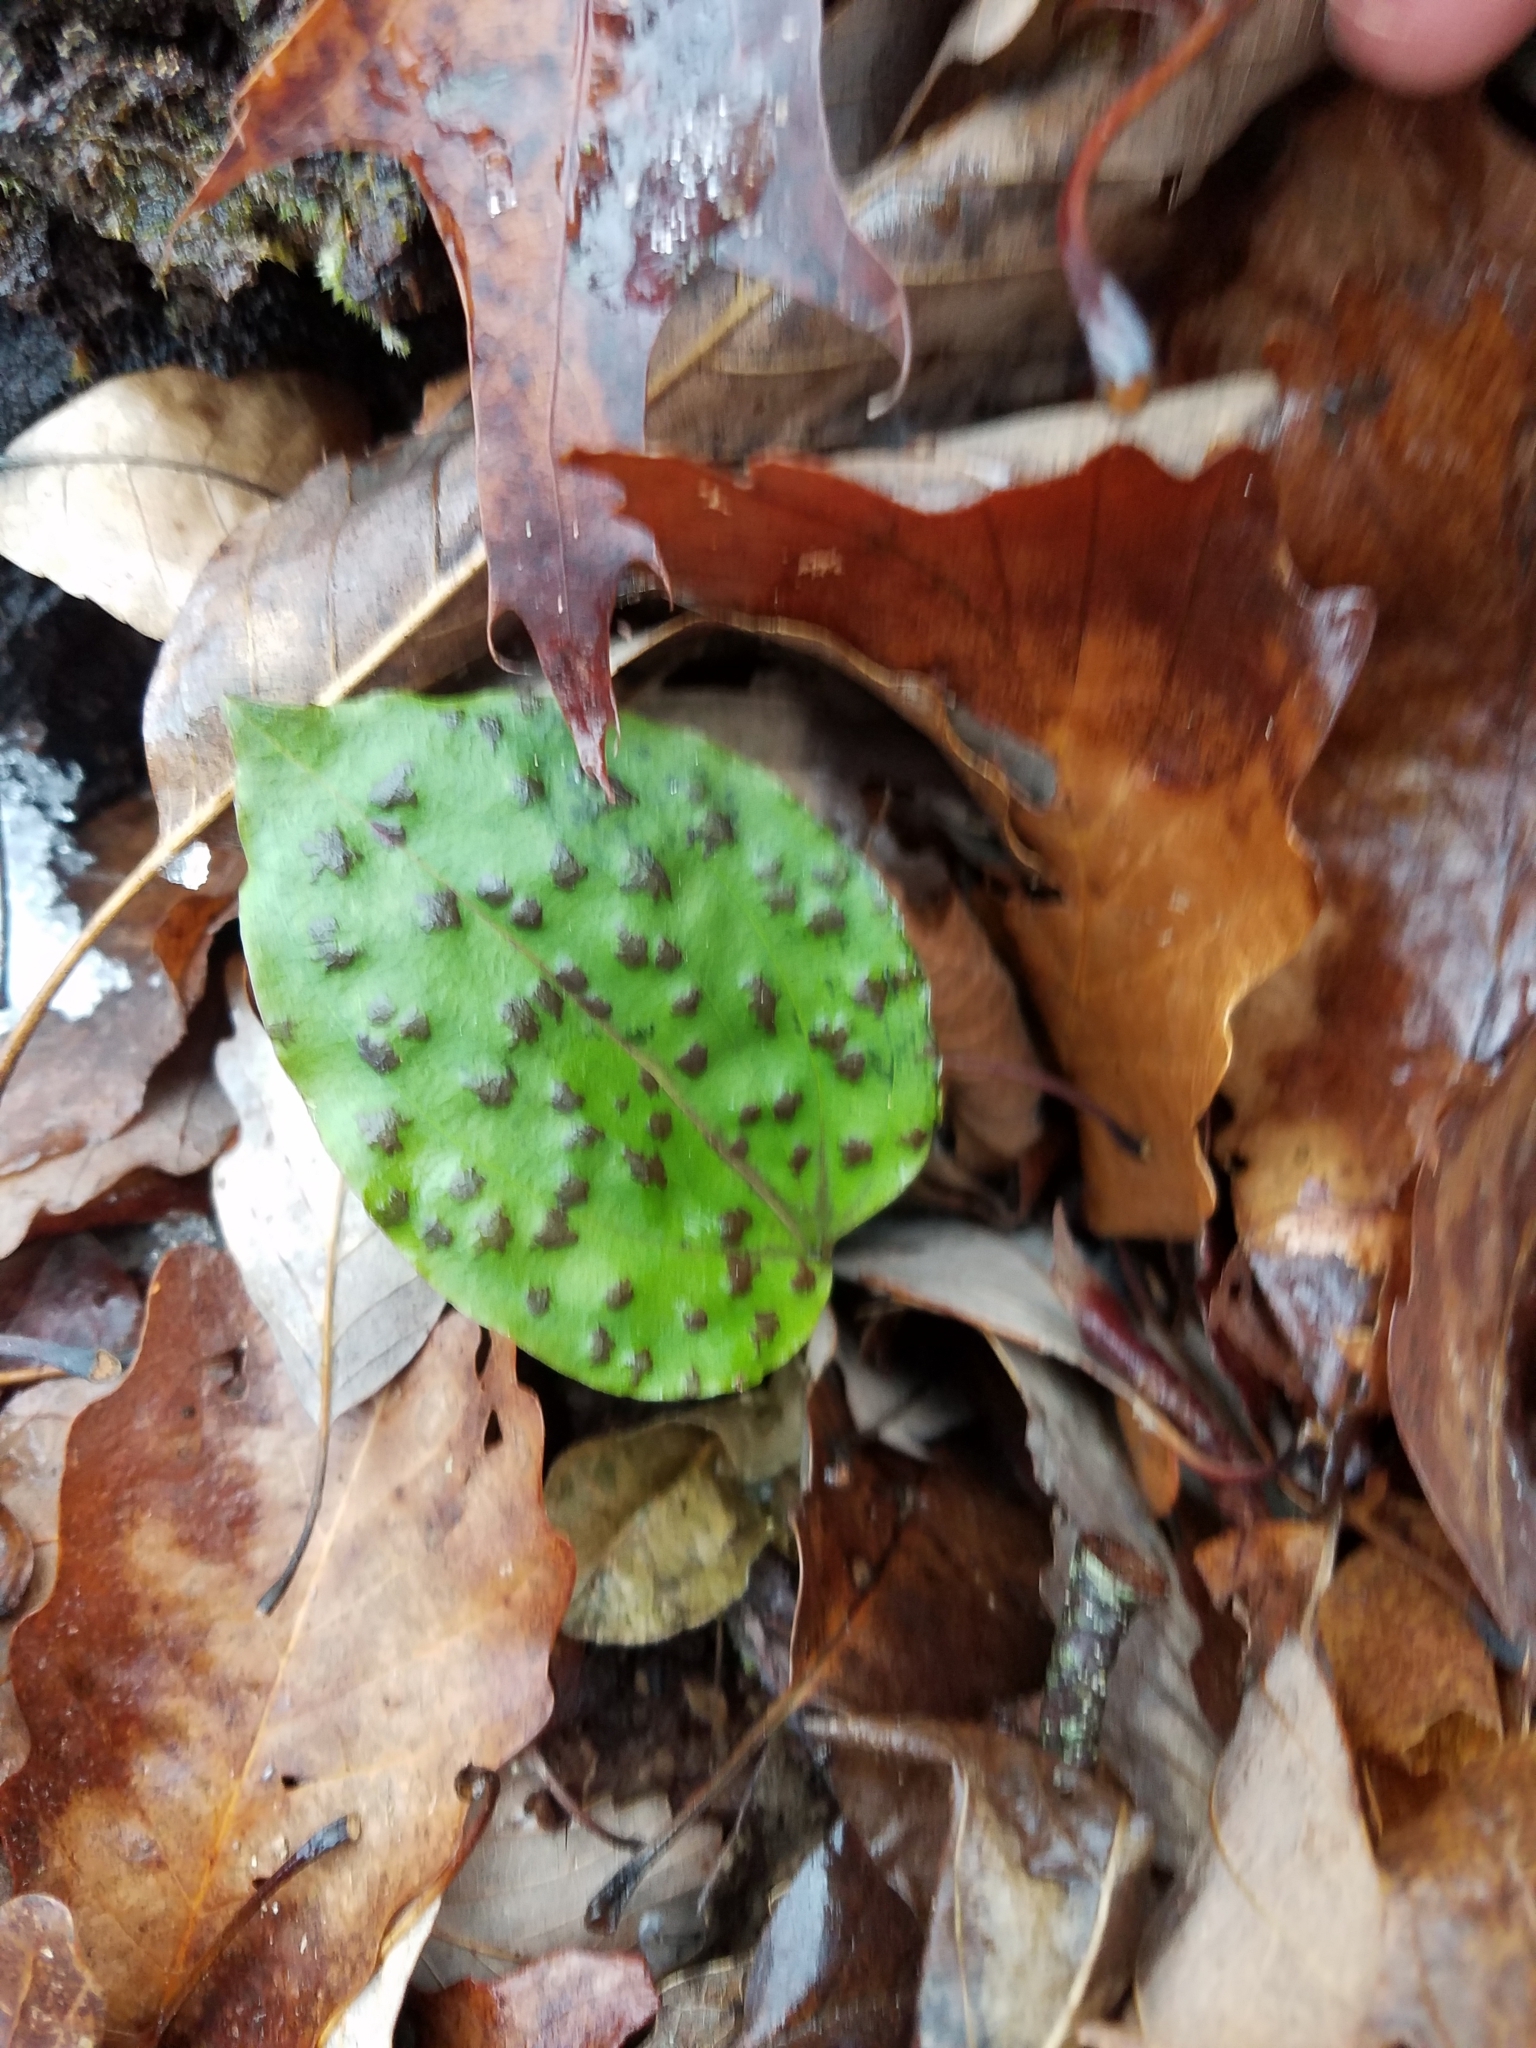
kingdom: Plantae
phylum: Tracheophyta
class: Liliopsida
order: Asparagales
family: Orchidaceae
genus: Tipularia
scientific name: Tipularia discolor
